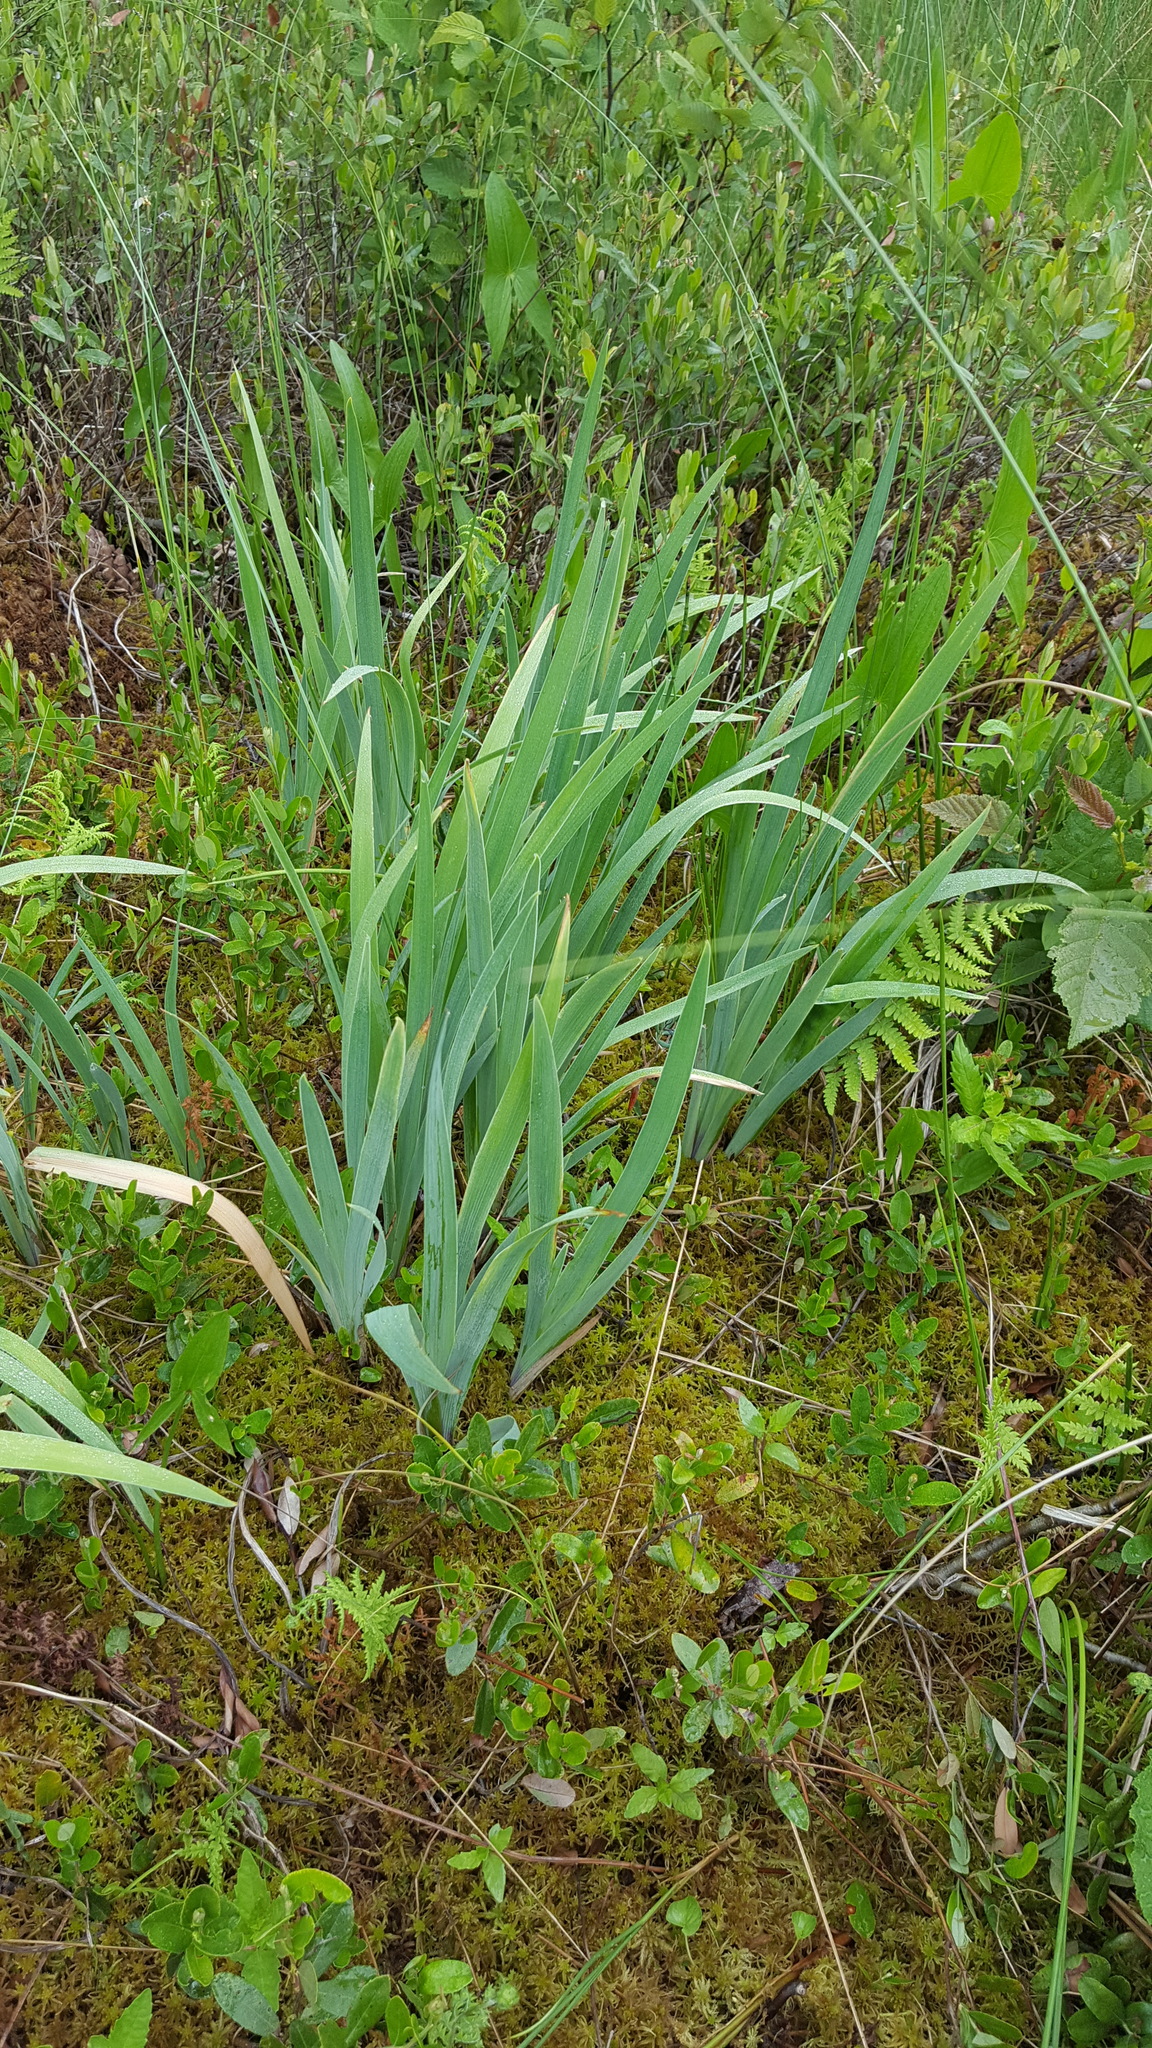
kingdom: Plantae
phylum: Tracheophyta
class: Liliopsida
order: Asparagales
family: Iridaceae
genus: Iris
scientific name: Iris versicolor
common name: Purple iris
